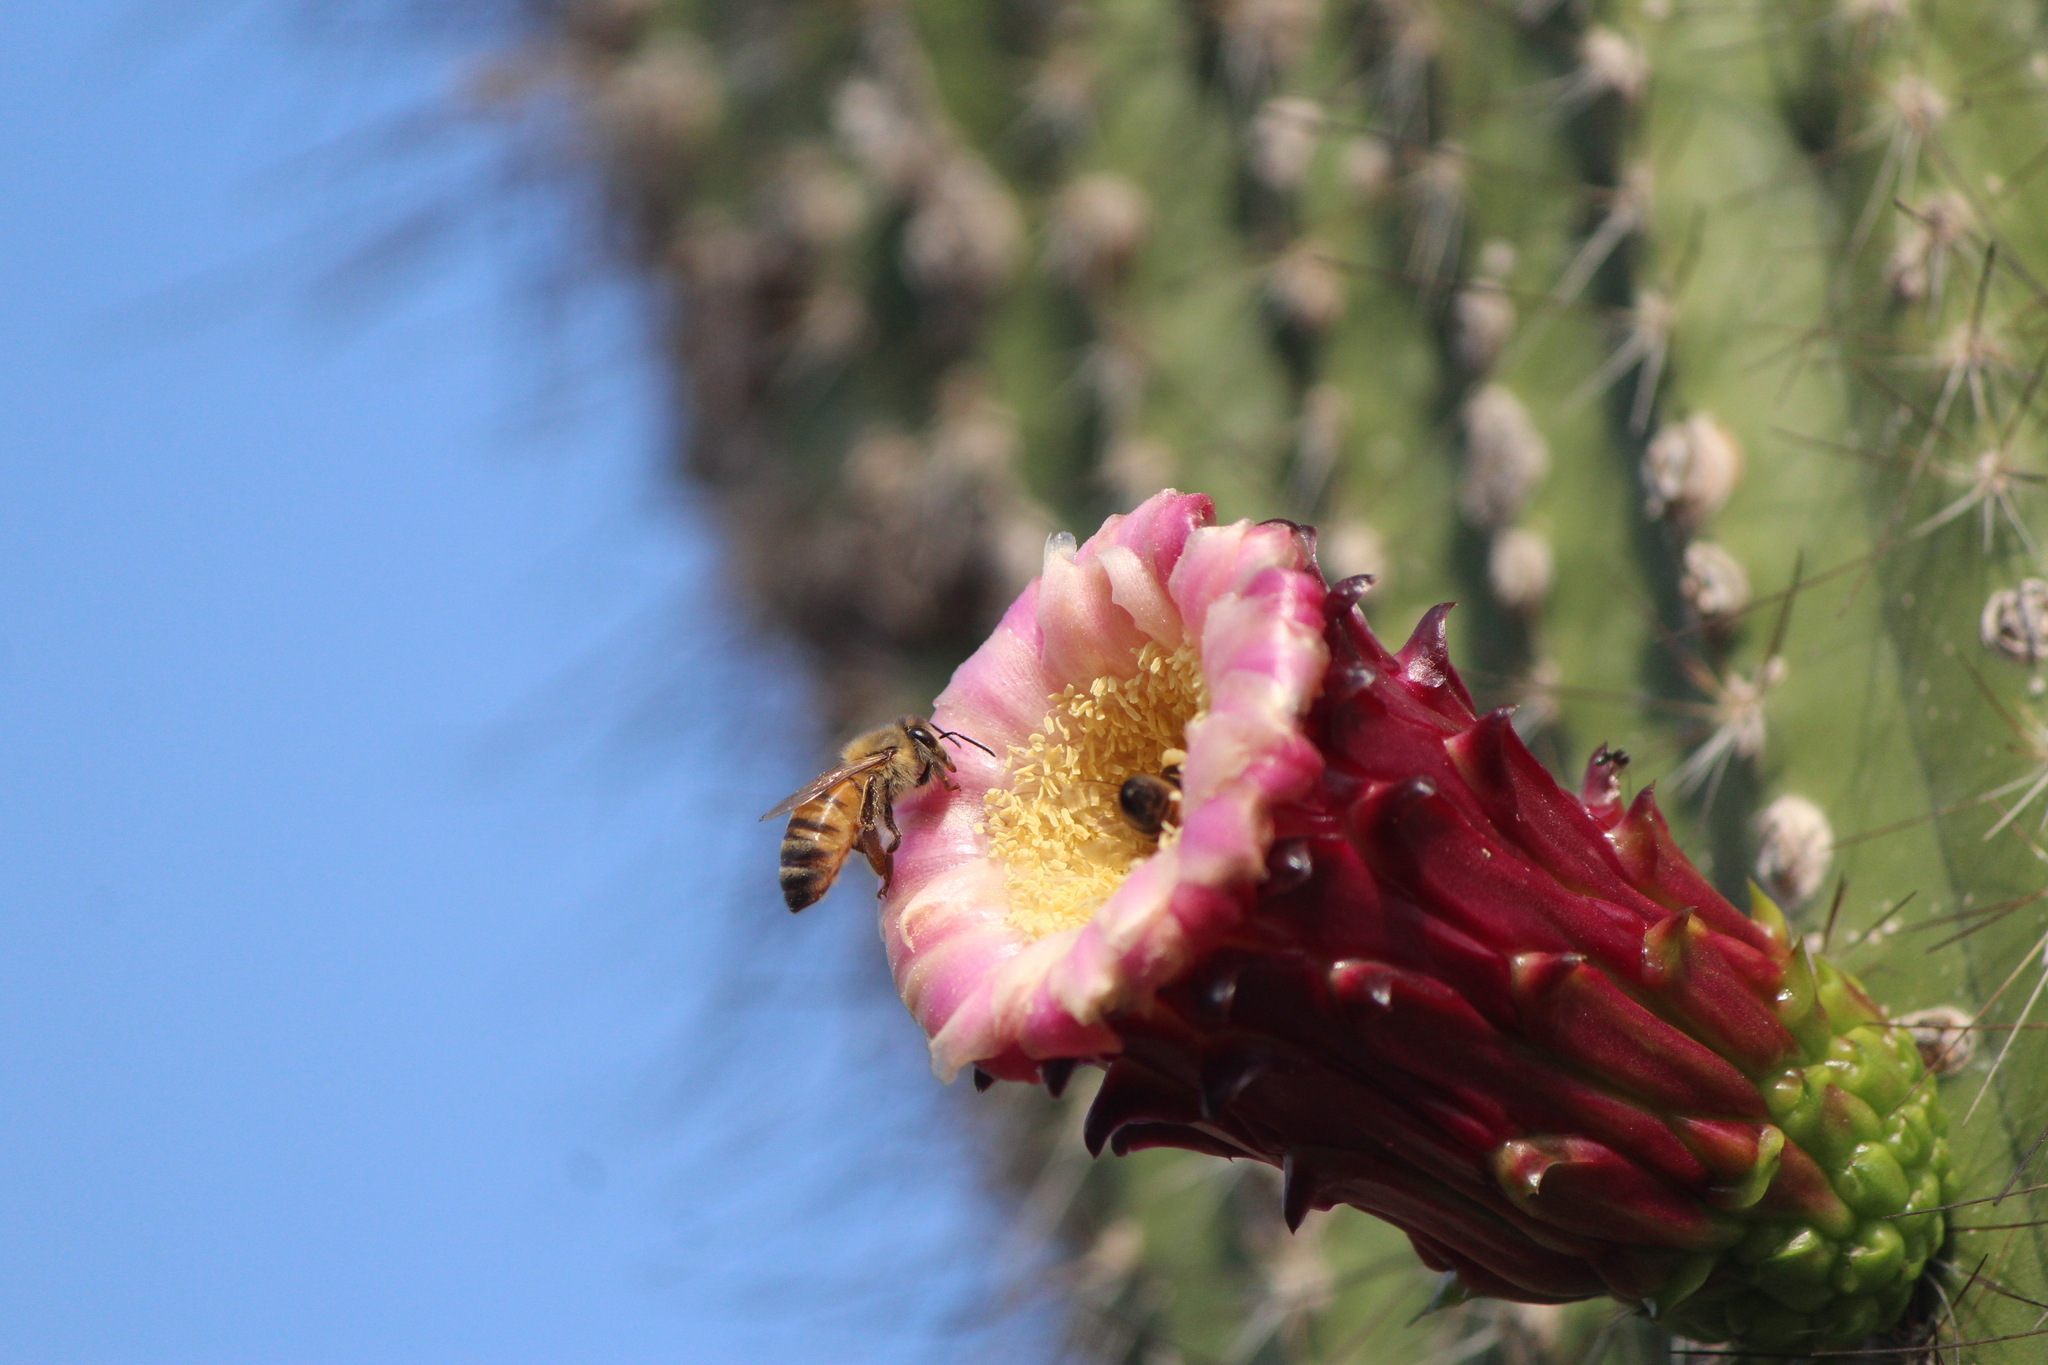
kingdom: Plantae
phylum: Tracheophyta
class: Magnoliopsida
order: Caryophyllales
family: Cactaceae
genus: Cephalocereus
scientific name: Cephalocereus polylophus
